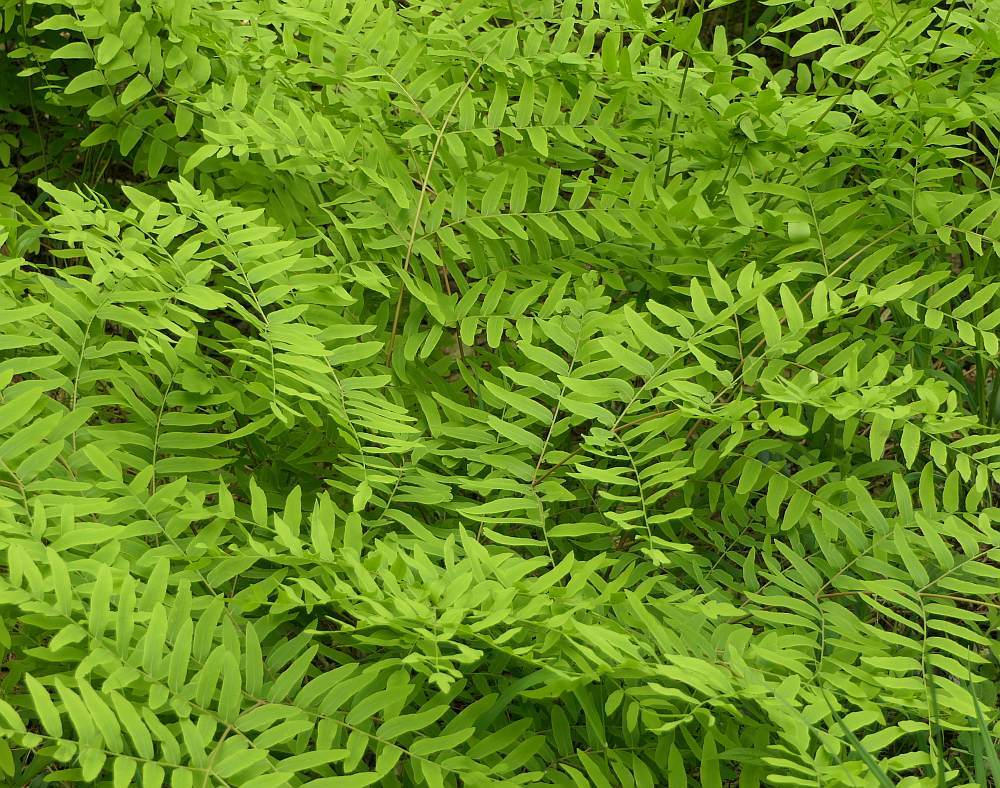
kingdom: Plantae
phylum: Tracheophyta
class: Polypodiopsida
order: Osmundales
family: Osmundaceae
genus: Osmunda
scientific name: Osmunda spectabilis
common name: American royal fern
